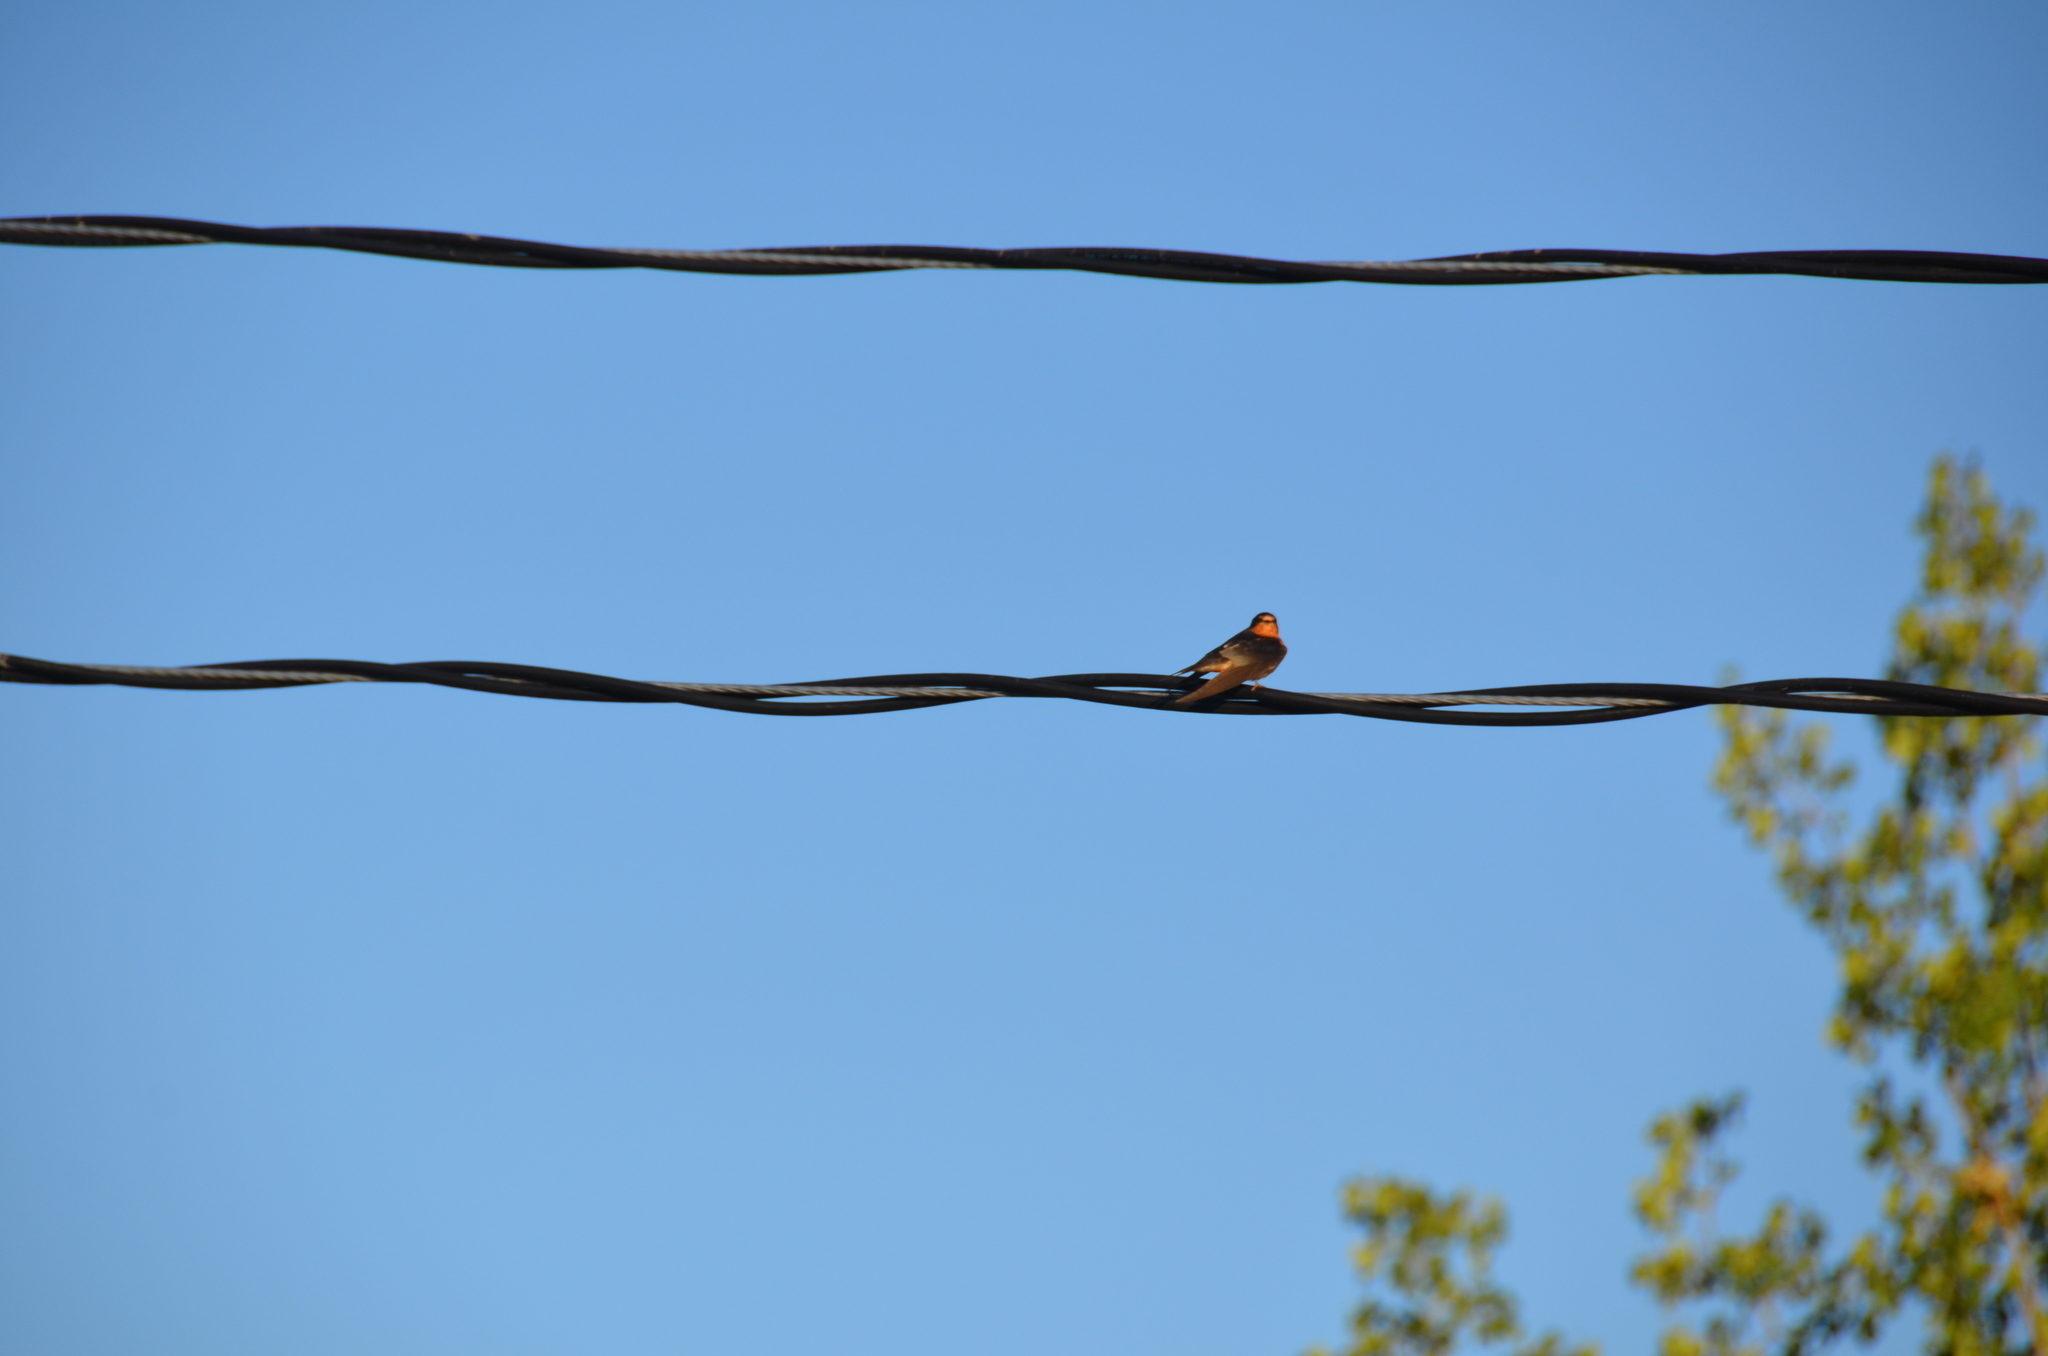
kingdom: Animalia
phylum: Chordata
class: Aves
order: Passeriformes
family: Hirundinidae
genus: Hirundo
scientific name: Hirundo rustica
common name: Barn swallow
